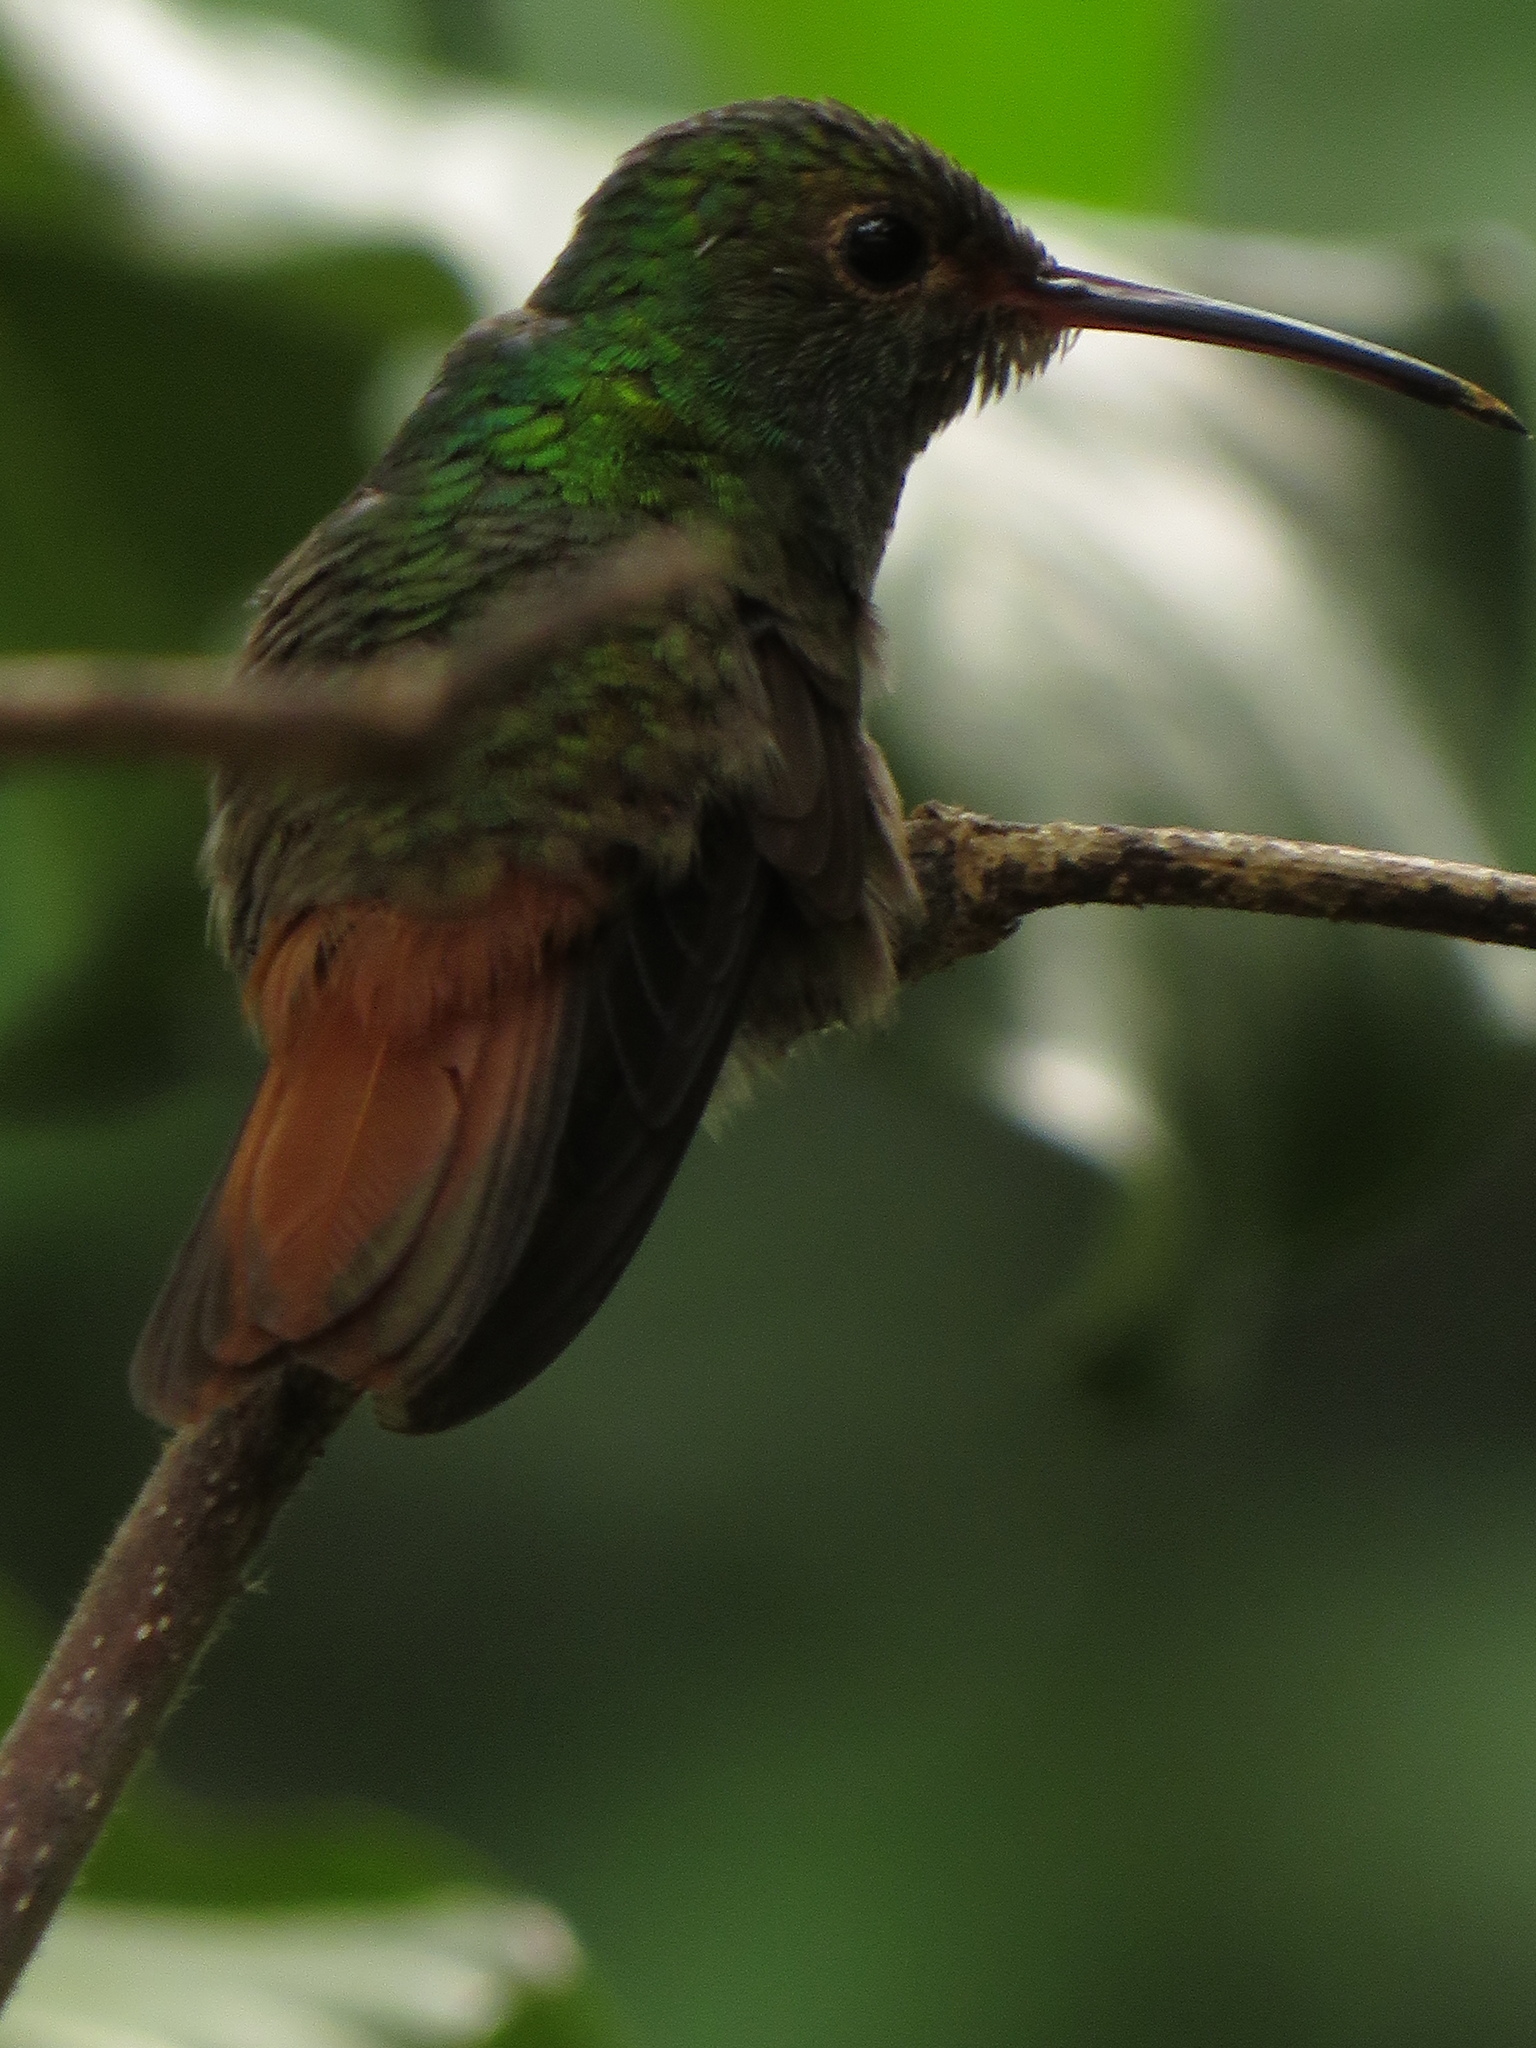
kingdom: Animalia
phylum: Chordata
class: Aves
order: Apodiformes
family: Trochilidae
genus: Amazilia
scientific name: Amazilia tzacatl
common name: Rufous-tailed hummingbird
